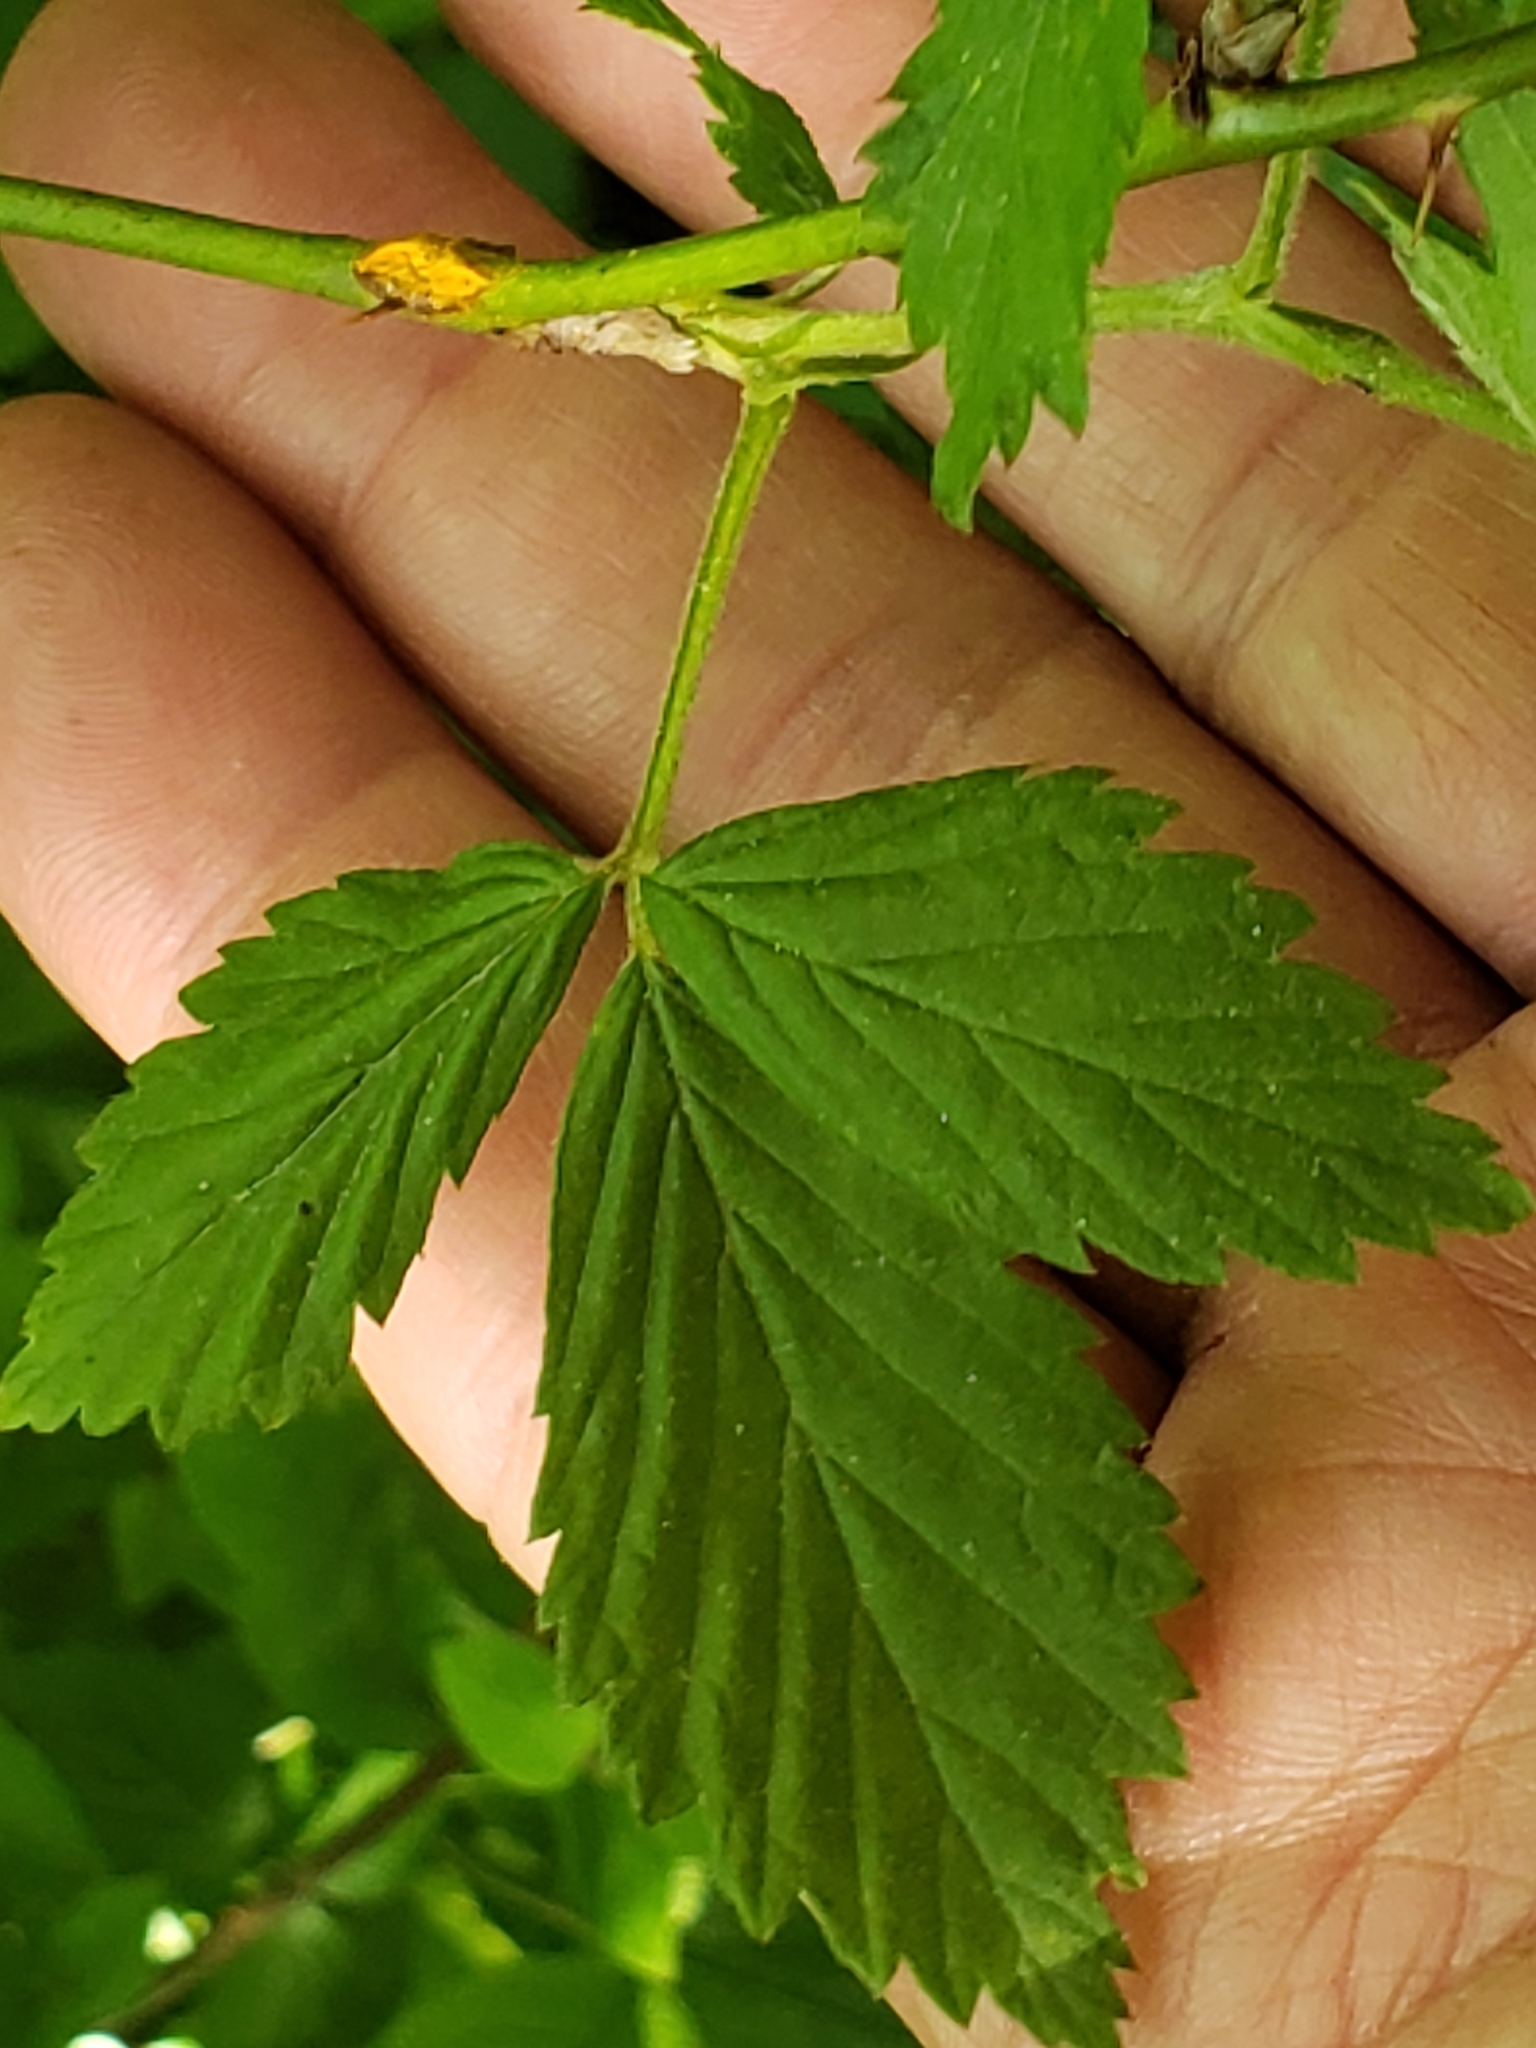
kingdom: Fungi
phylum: Basidiomycota
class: Pucciniomycetes
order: Pucciniales
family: Phragmidiaceae
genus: Kuehneola
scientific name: Kuehneola uredinis
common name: Bramble stem rust
